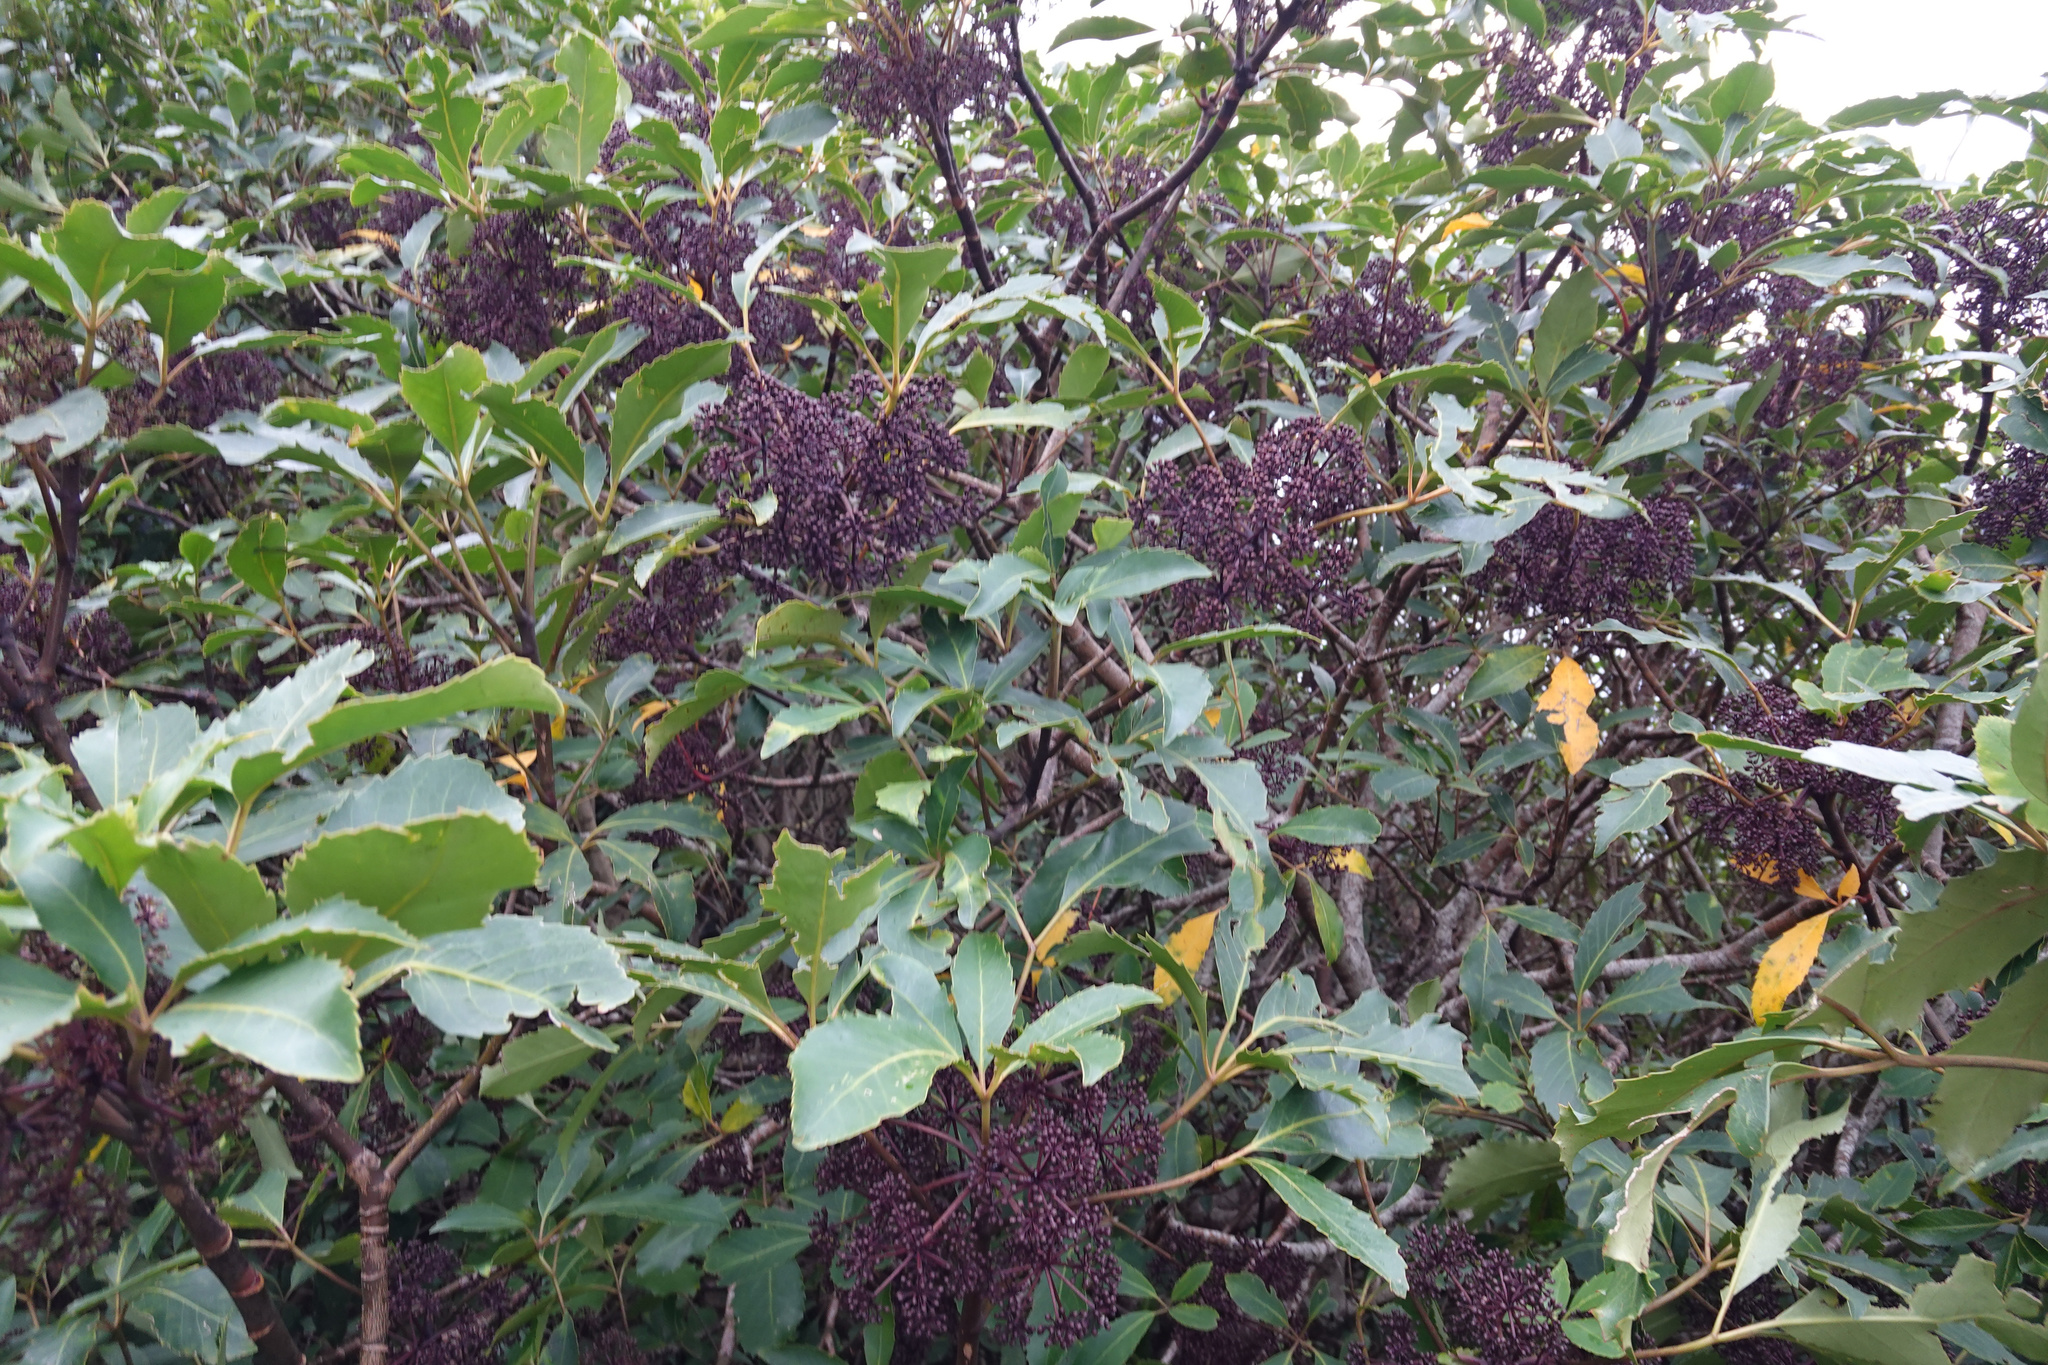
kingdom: Plantae
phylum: Tracheophyta
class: Magnoliopsida
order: Apiales
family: Araliaceae
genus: Neopanax
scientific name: Neopanax arboreus
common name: Five-fingers
